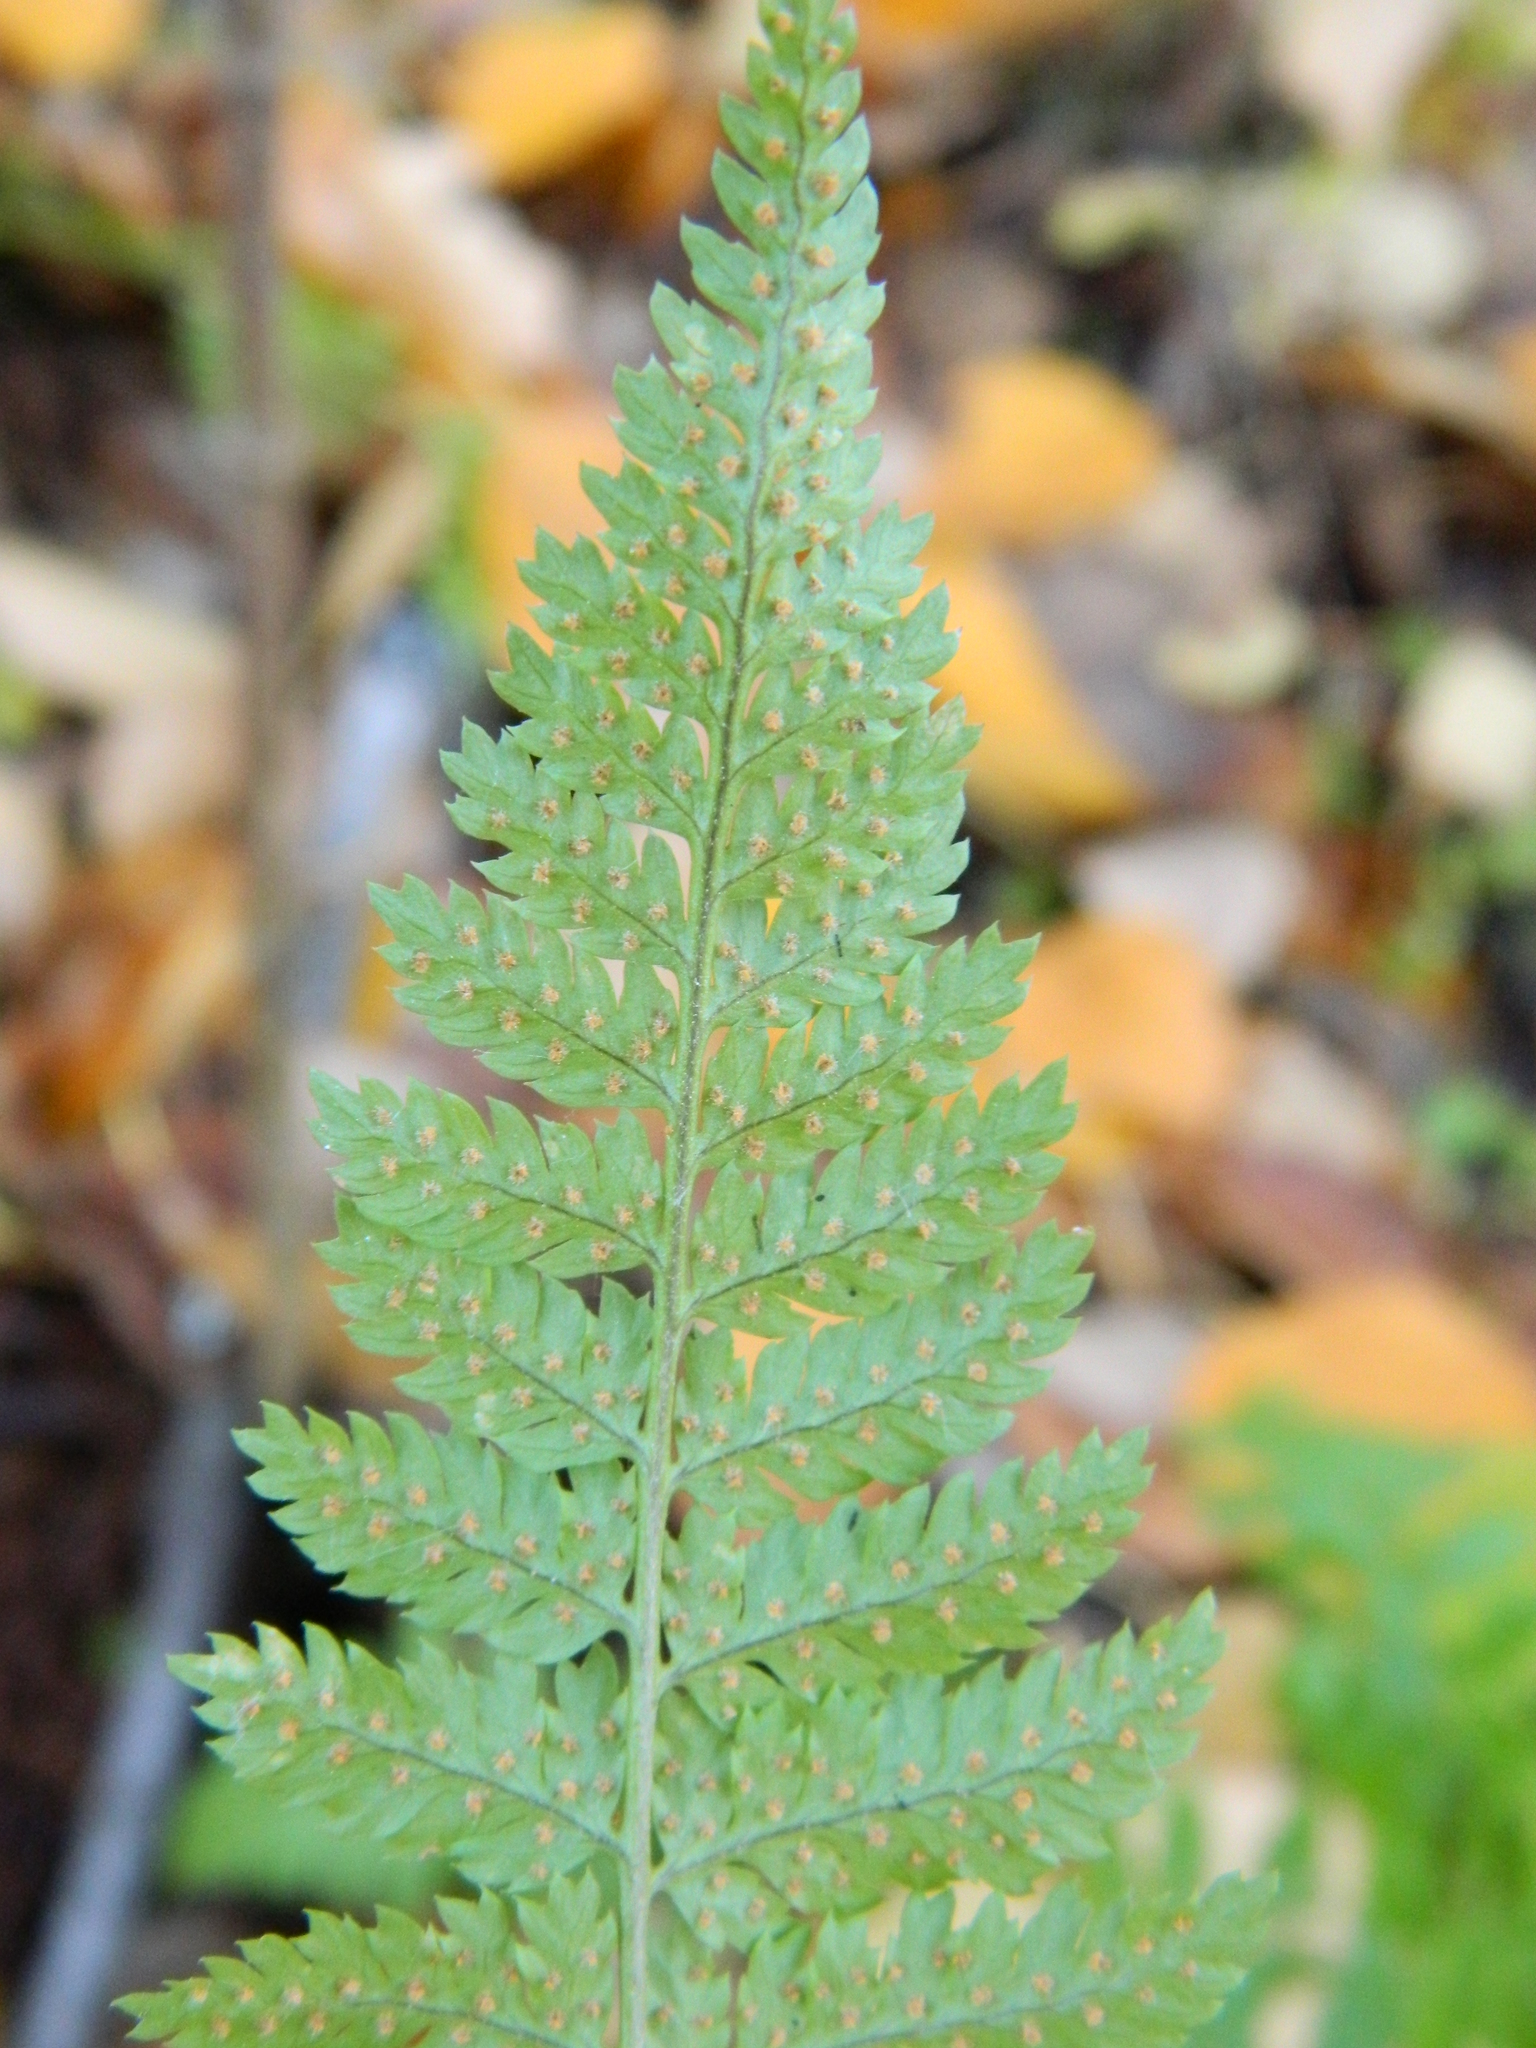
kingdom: Plantae
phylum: Tracheophyta
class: Polypodiopsida
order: Polypodiales
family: Dryopteridaceae
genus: Dryopteris
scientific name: Dryopteris intermedia
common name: Evergreen wood fern
